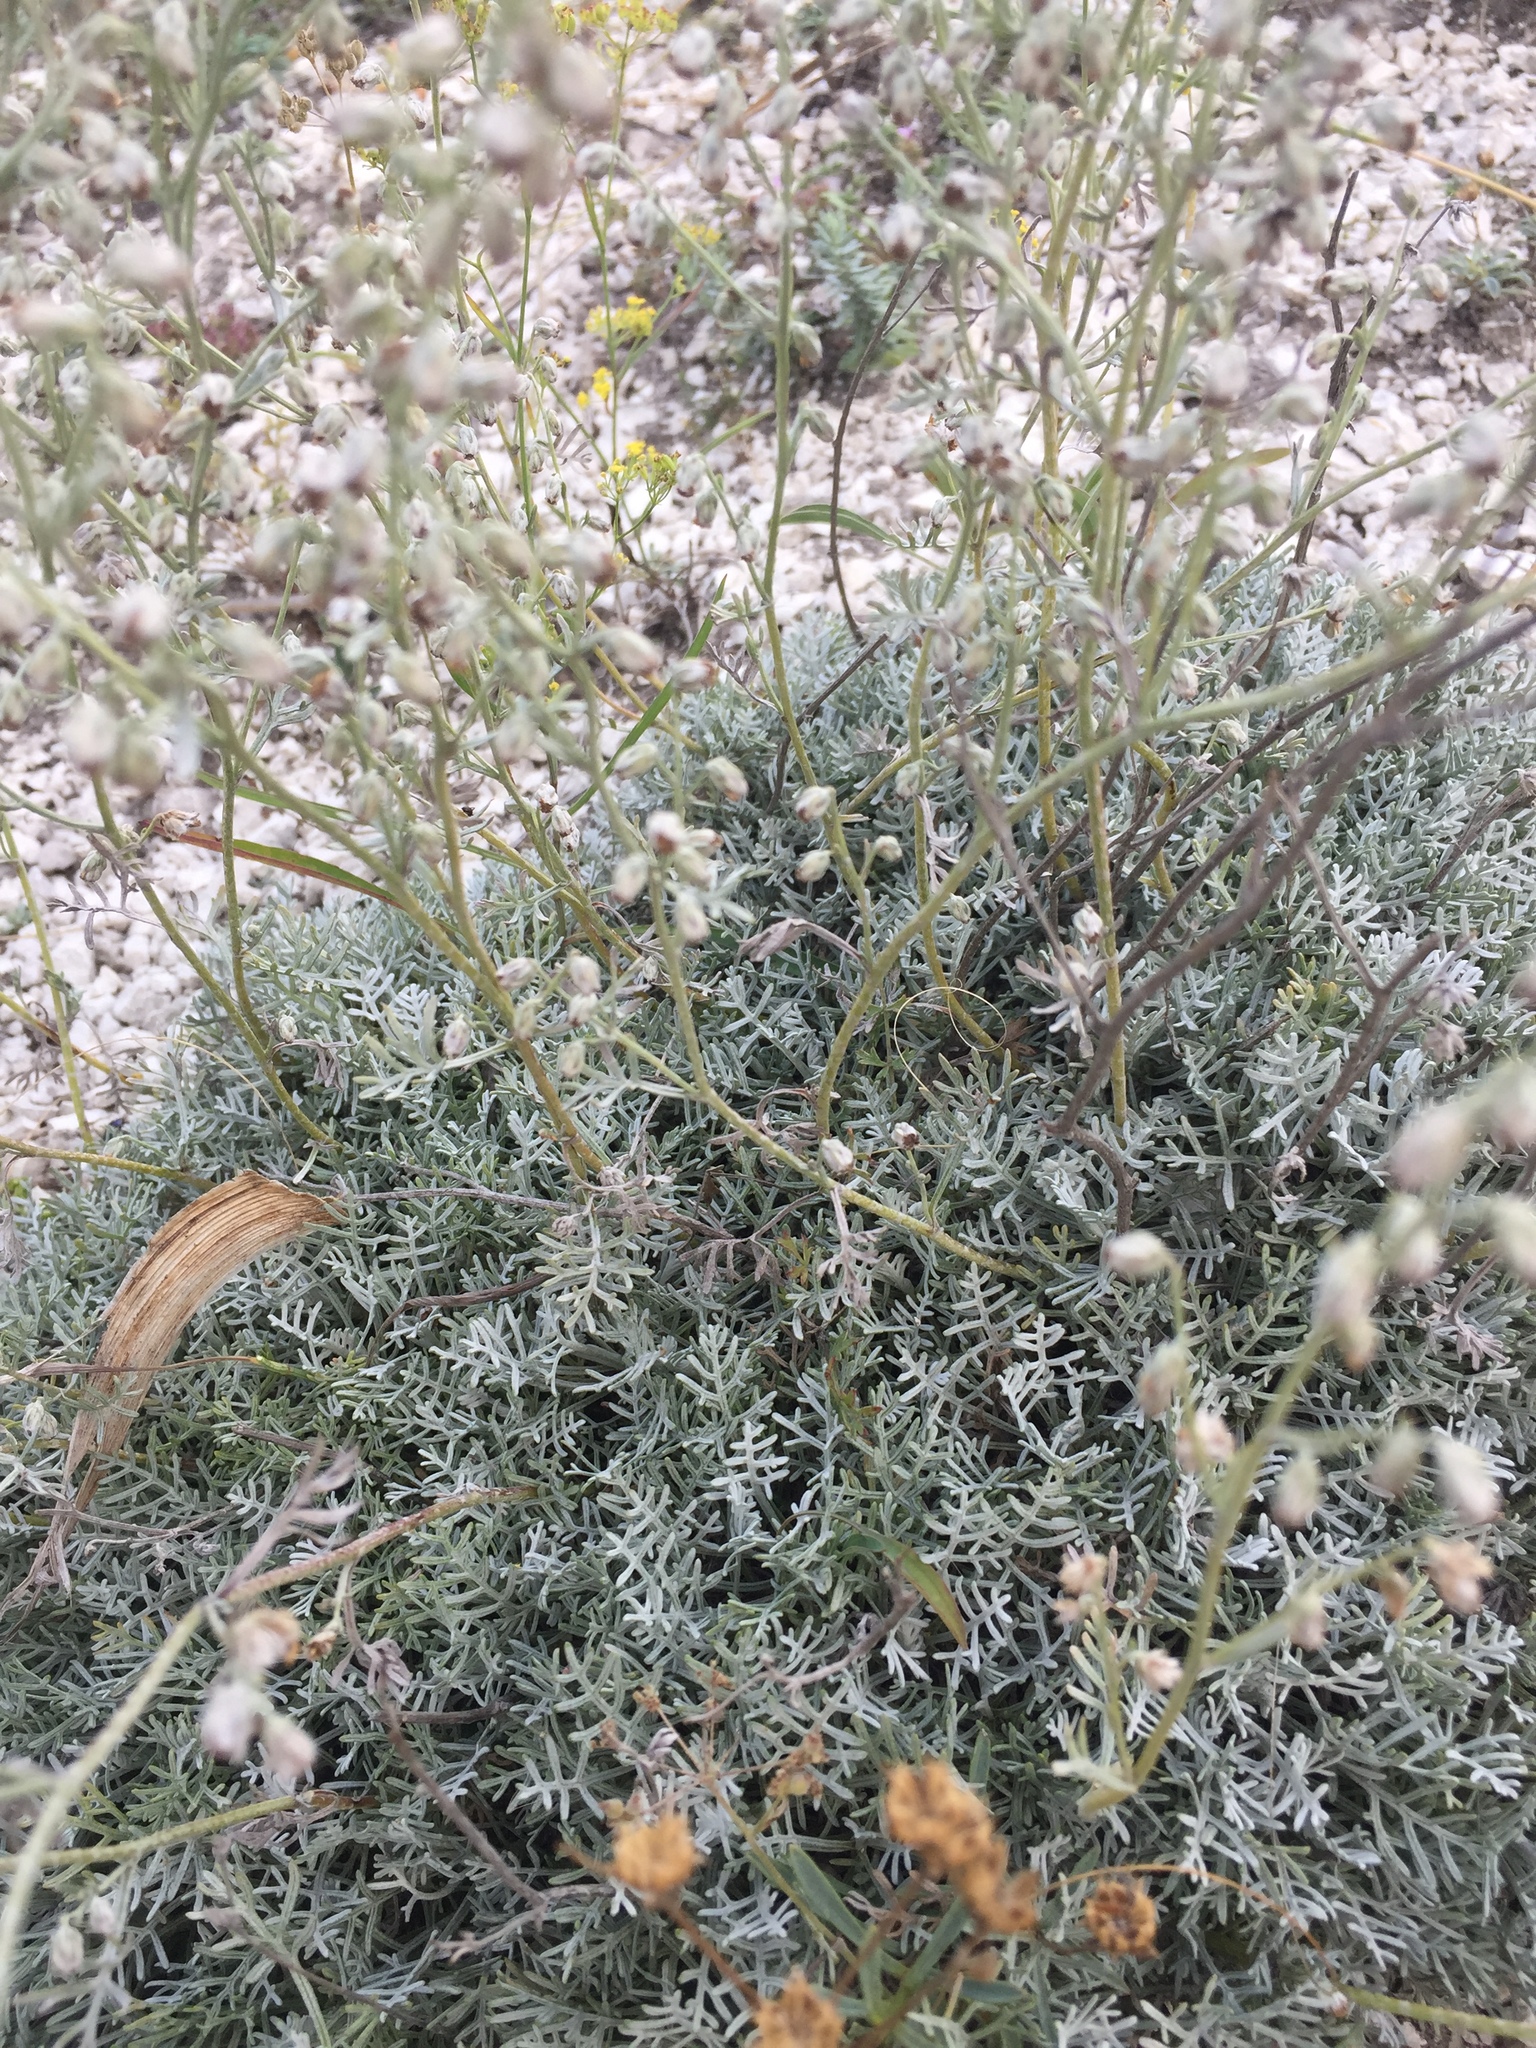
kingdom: Plantae
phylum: Tracheophyta
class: Magnoliopsida
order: Asterales
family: Asteraceae
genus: Artemisia
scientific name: Artemisia hololeuca
